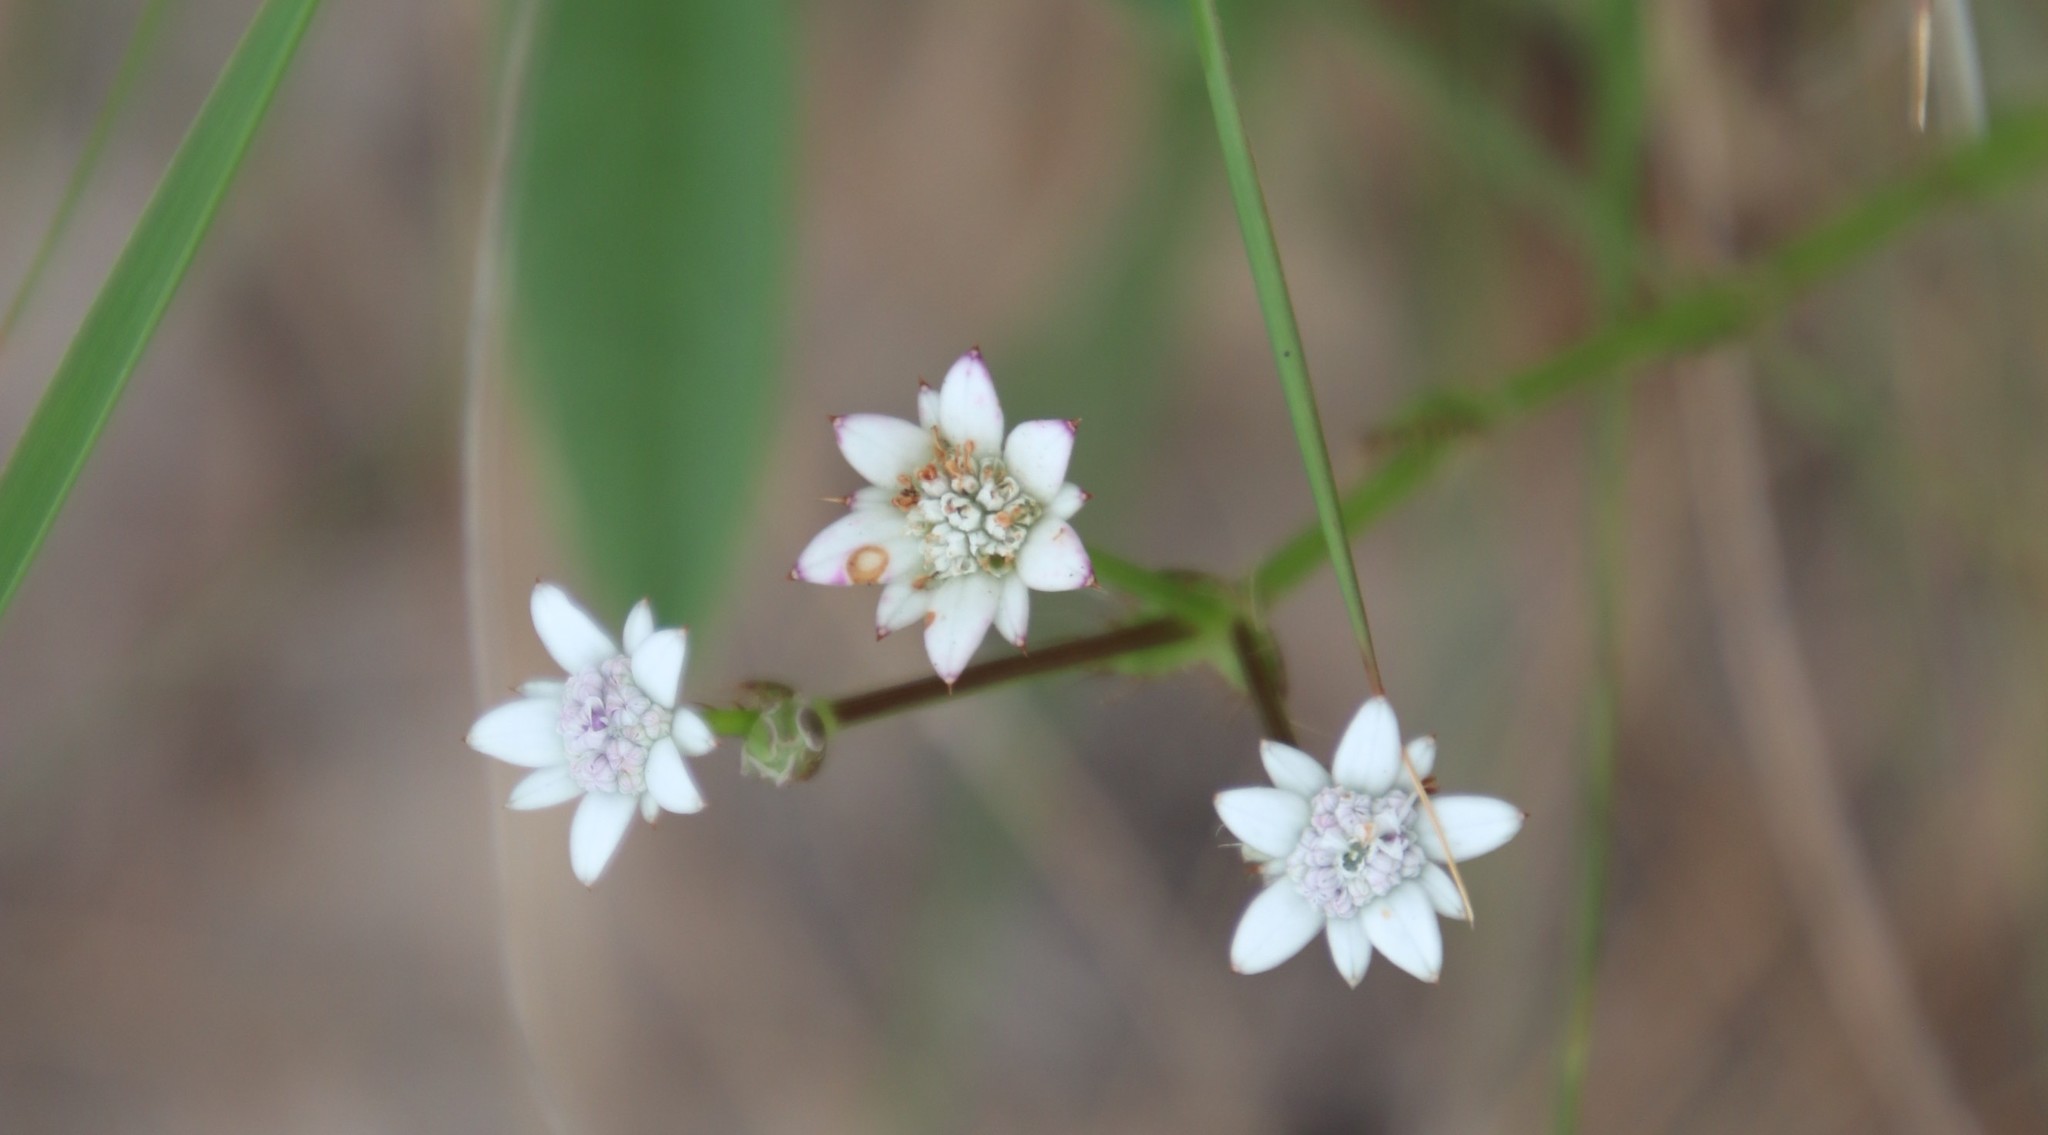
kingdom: Plantae
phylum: Tracheophyta
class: Magnoliopsida
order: Apiales
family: Apiaceae
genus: Alepidea
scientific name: Alepidea peduncularis
